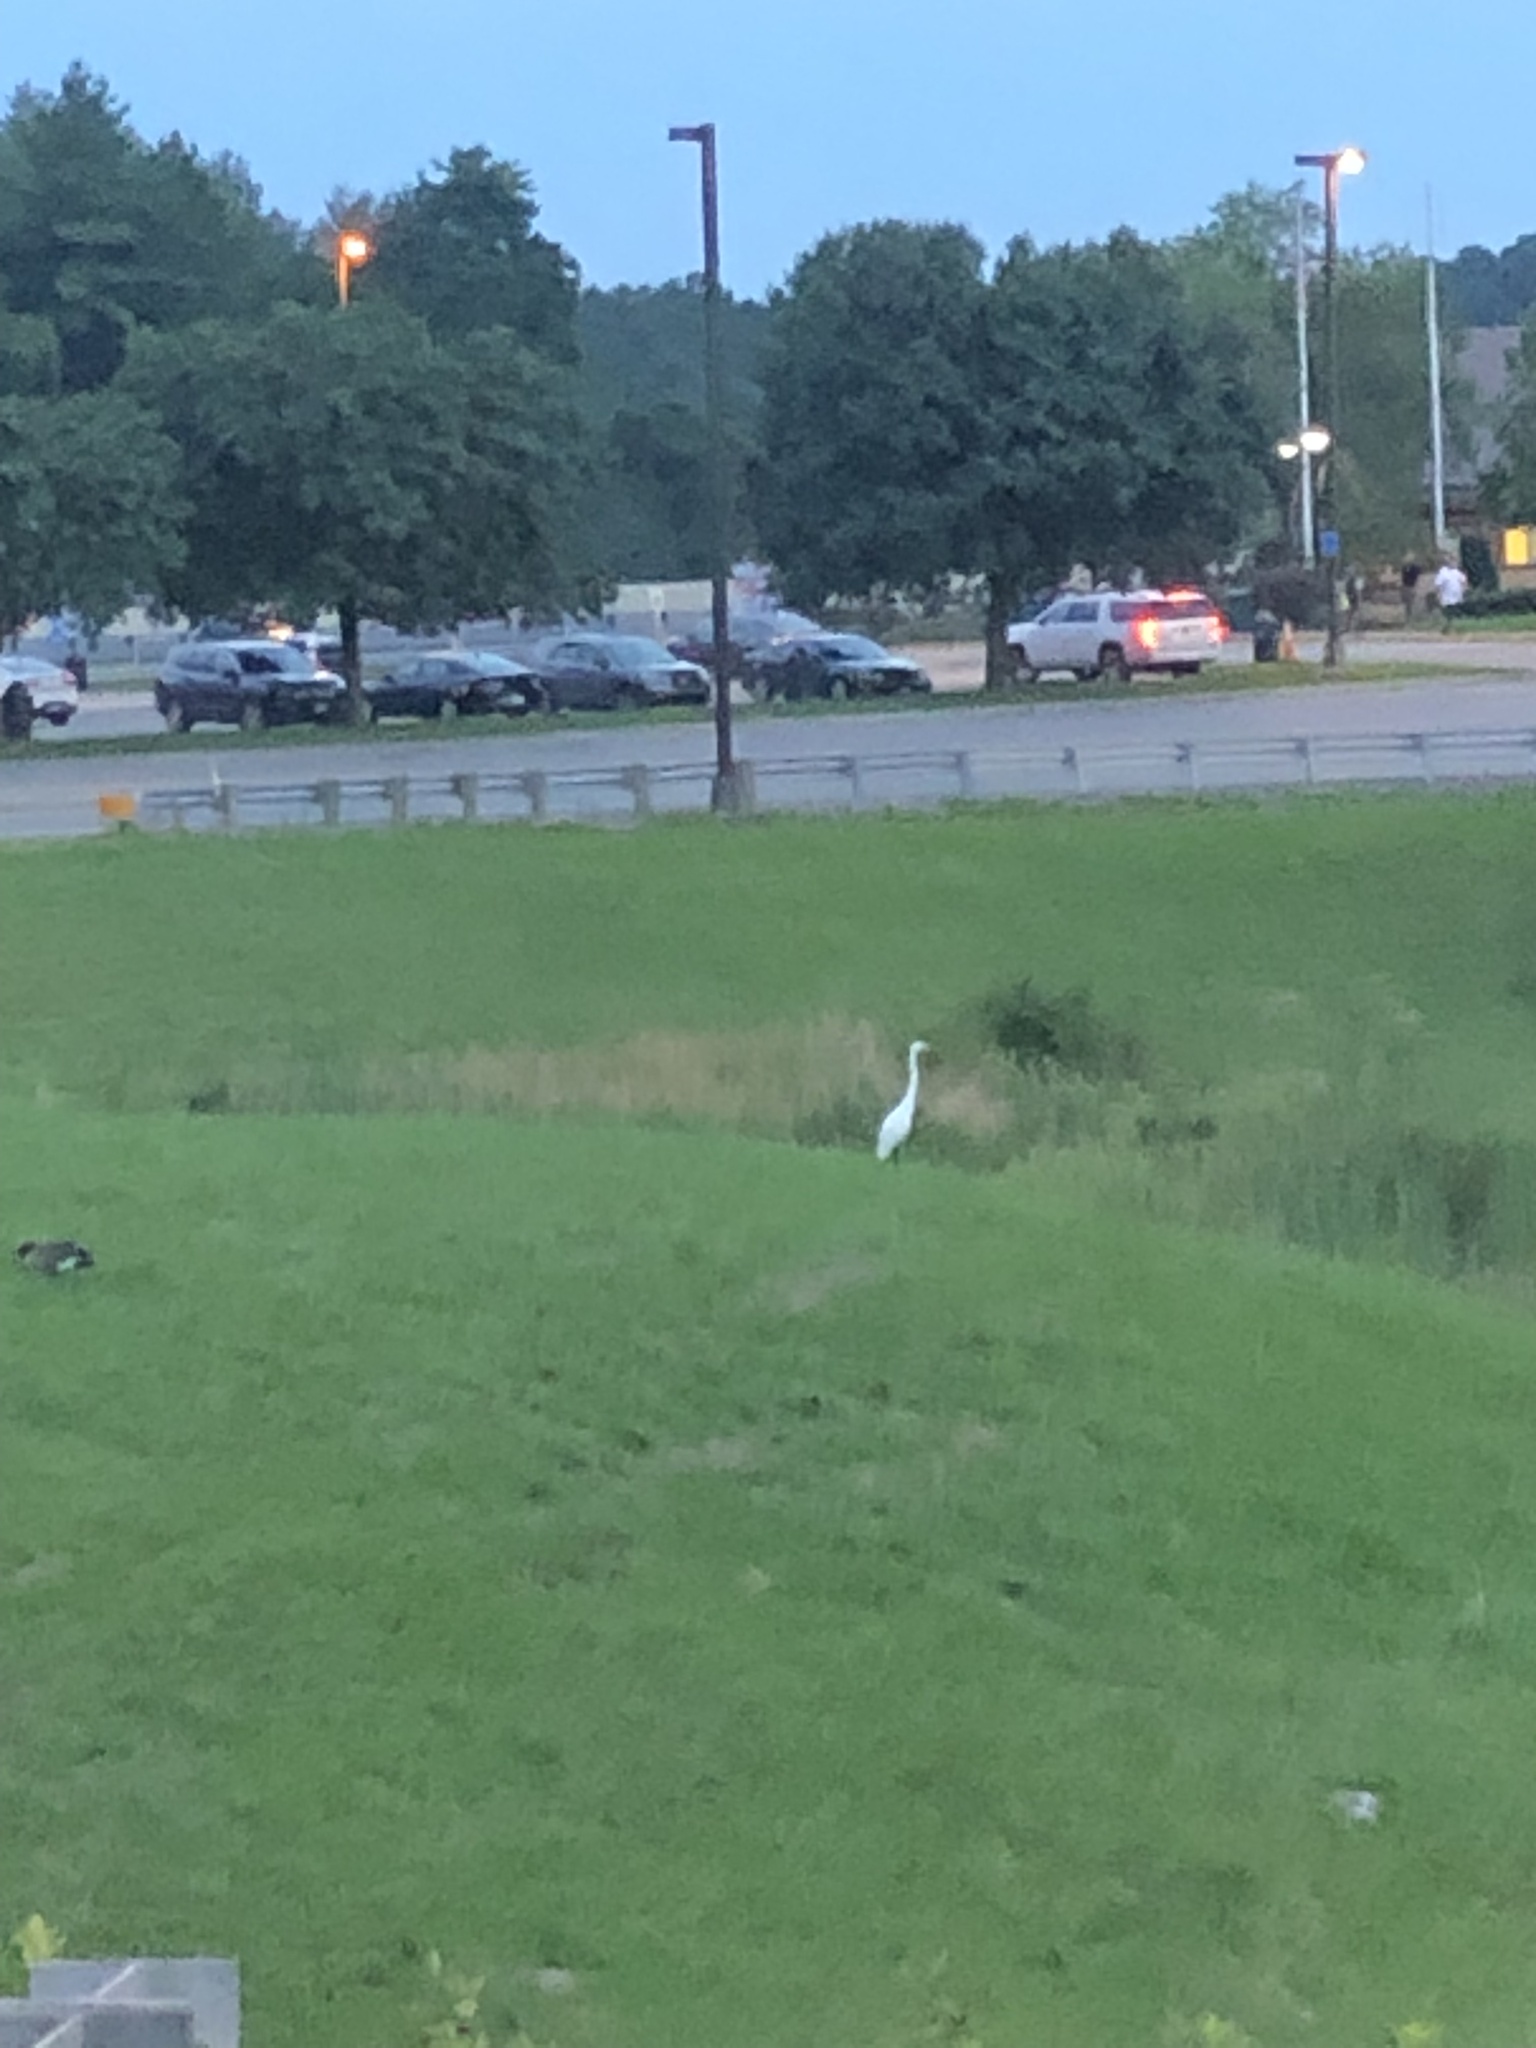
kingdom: Animalia
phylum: Chordata
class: Aves
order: Pelecaniformes
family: Ardeidae
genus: Ardea
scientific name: Ardea alba
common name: Great egret
